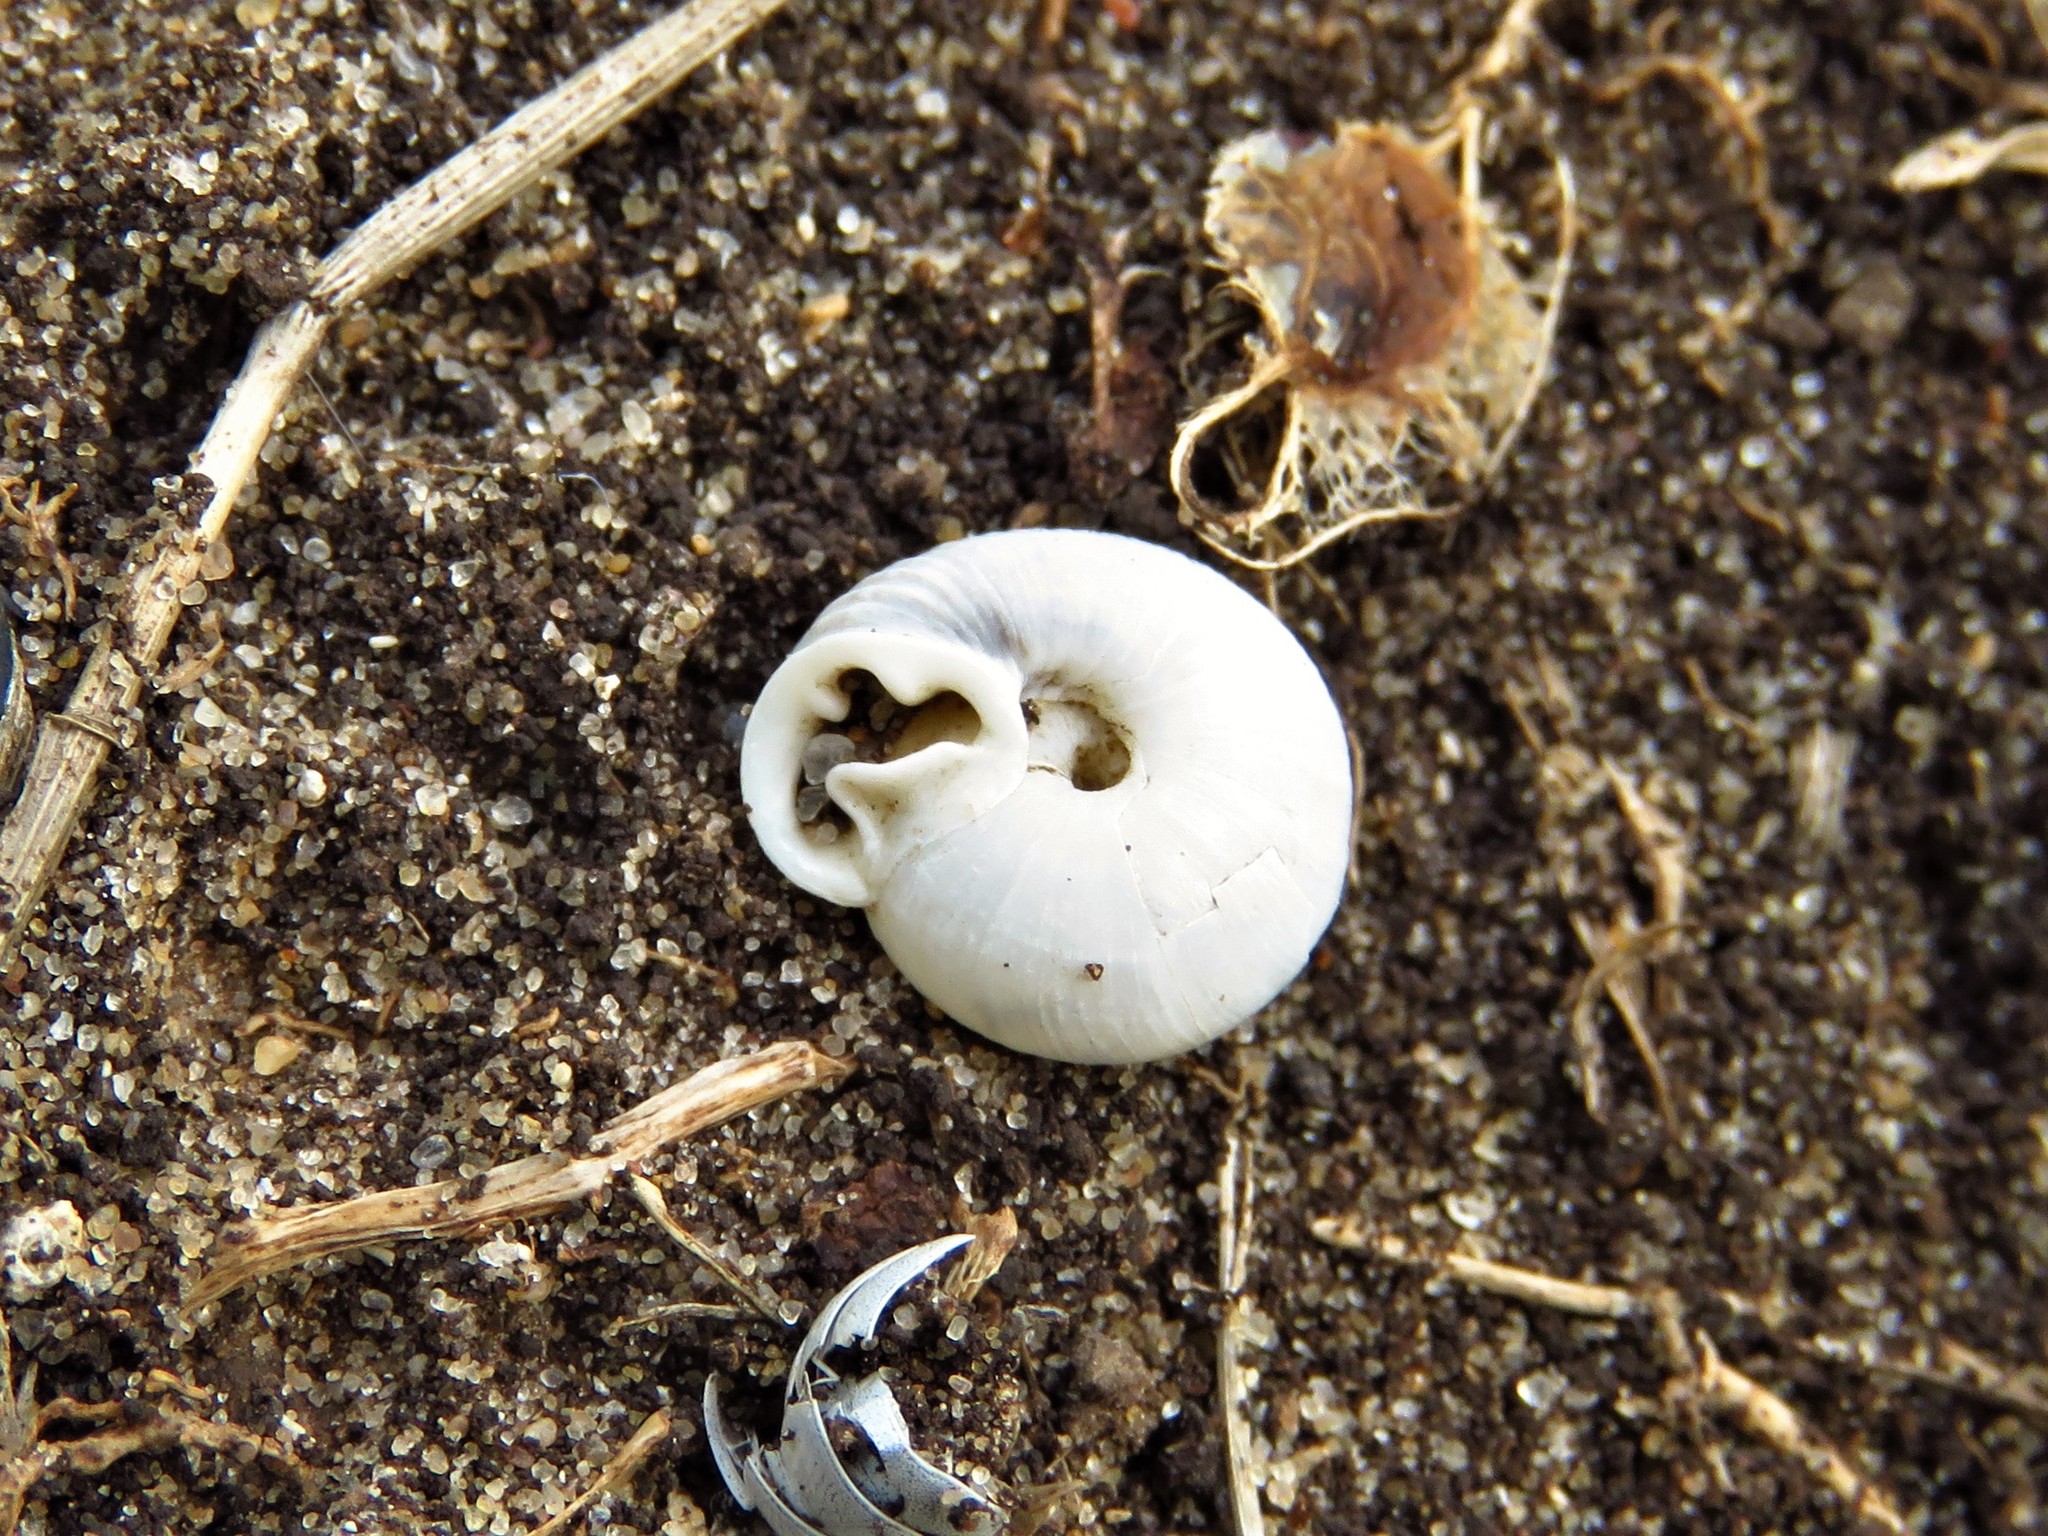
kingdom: Animalia
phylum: Mollusca
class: Gastropoda
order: Stylommatophora
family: Polygyridae
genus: Linisa
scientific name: Linisa texasiana
